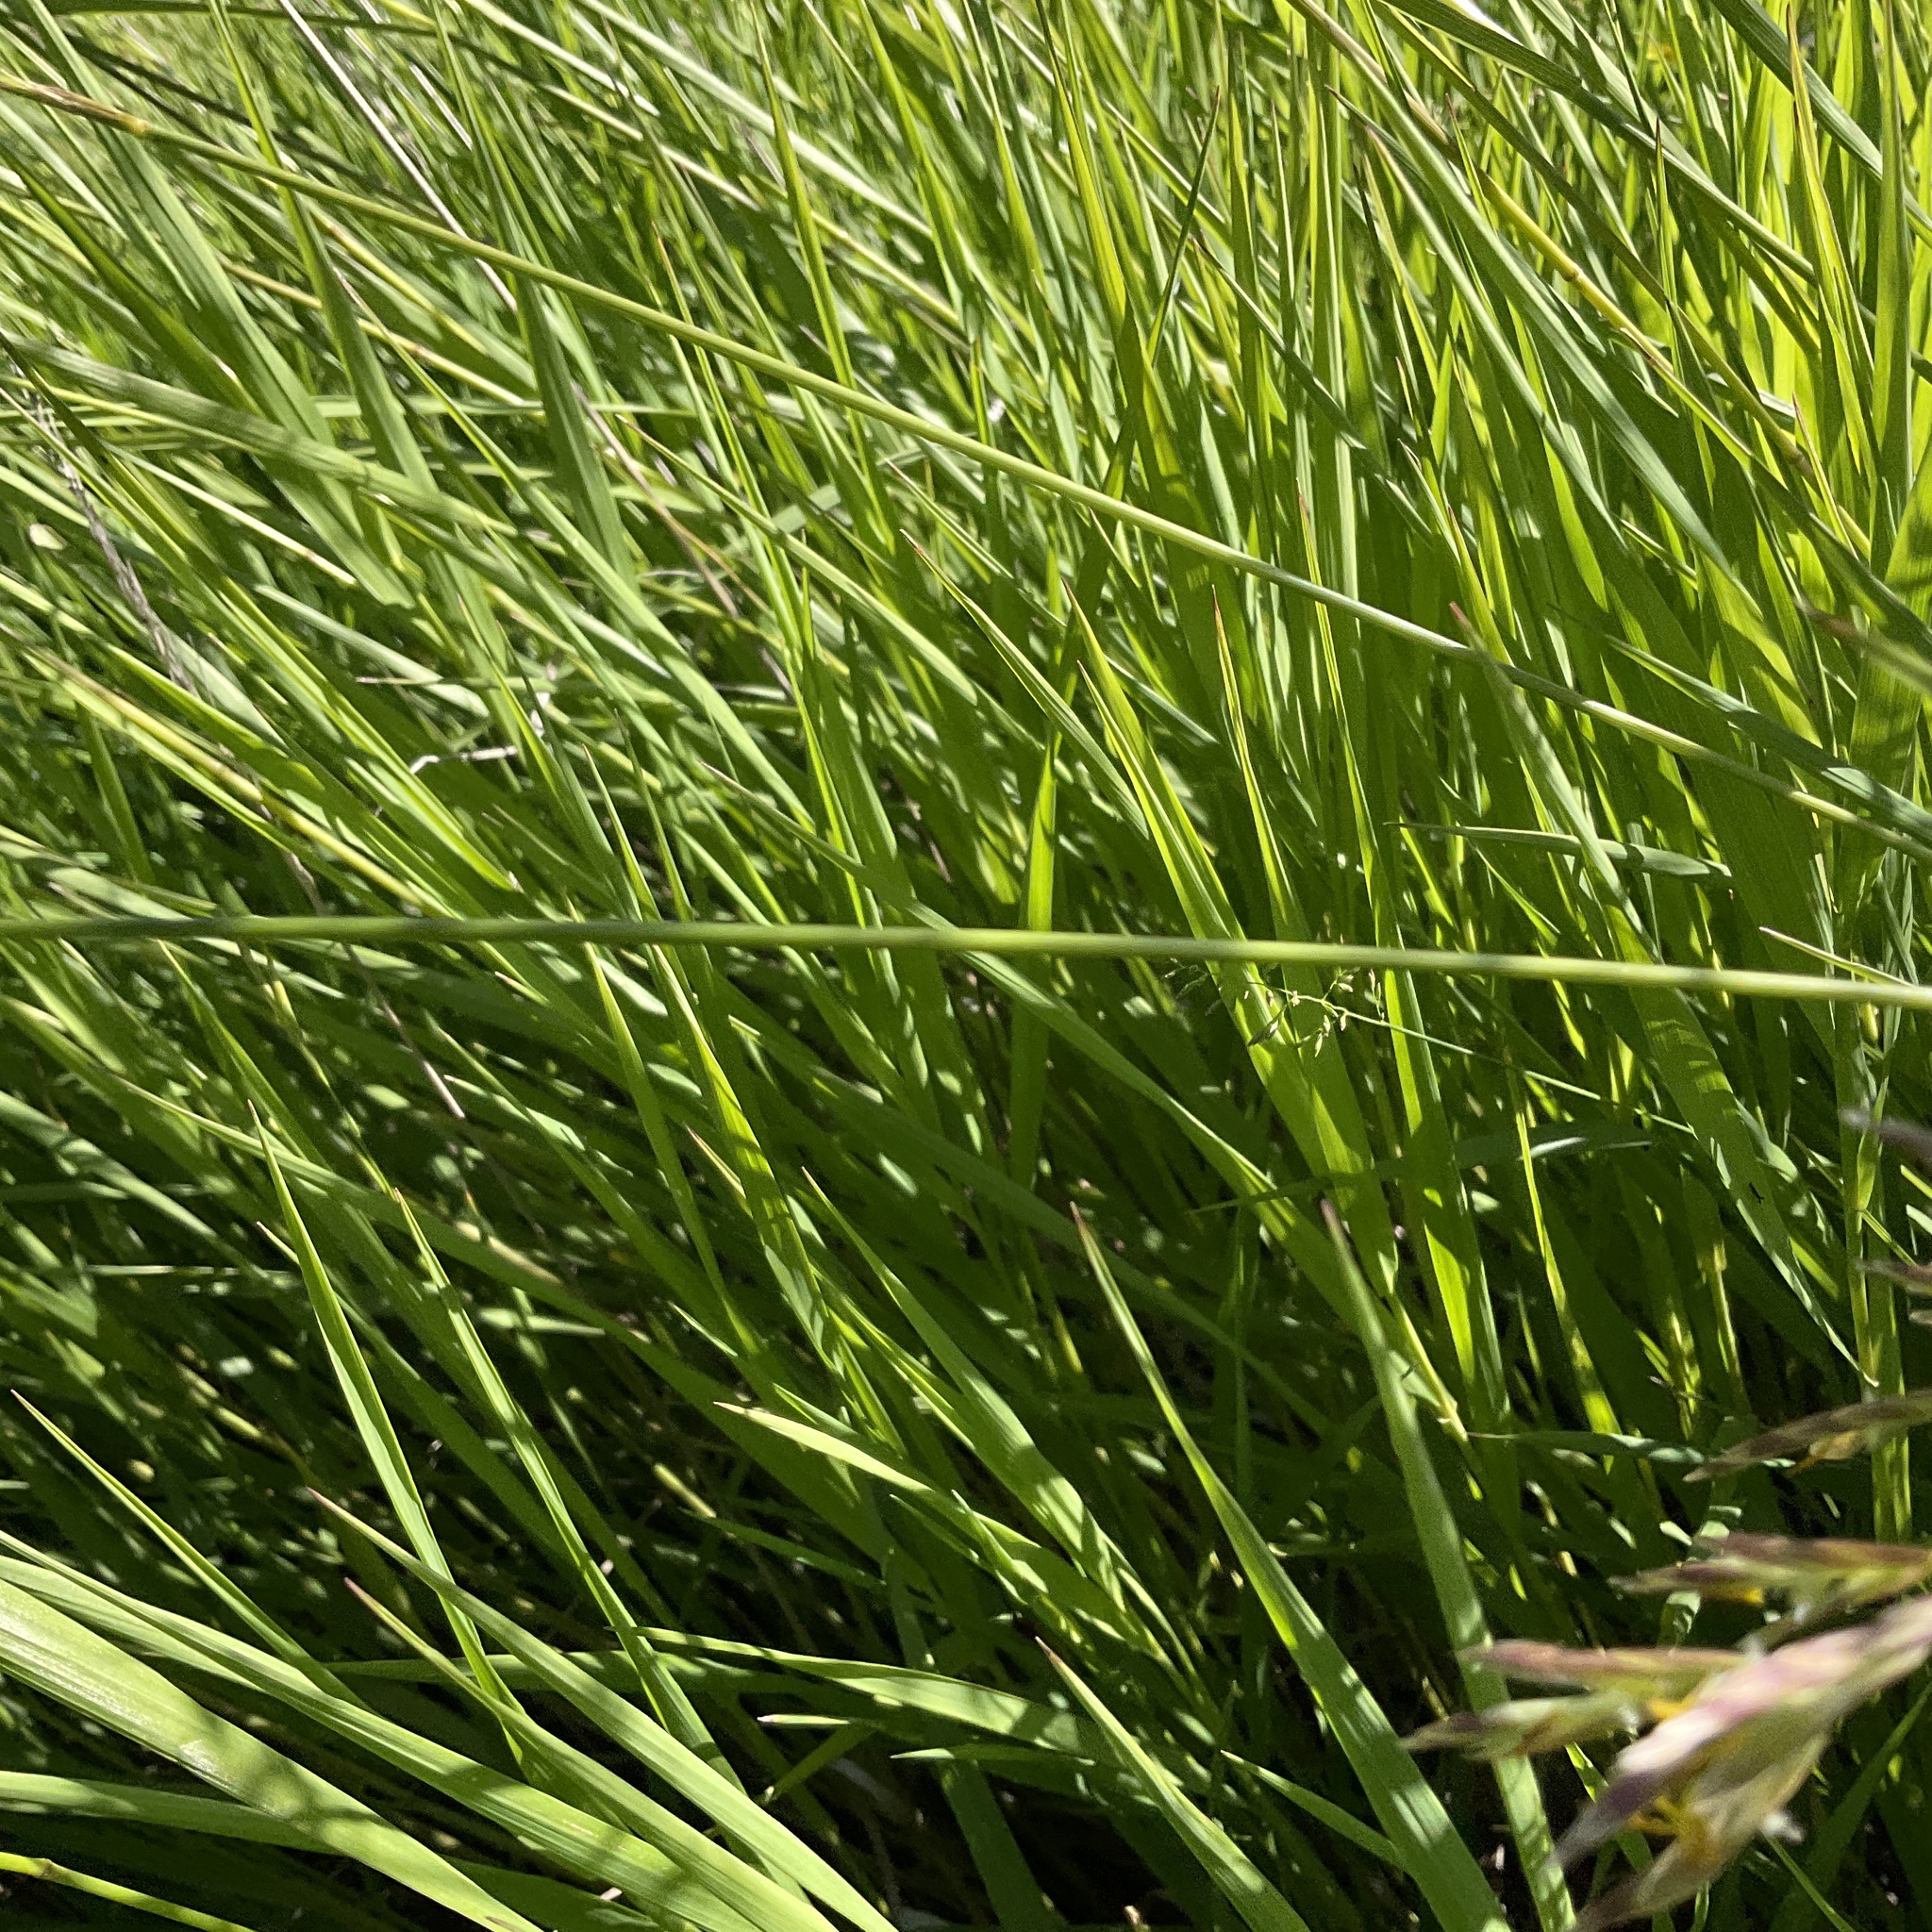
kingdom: Plantae
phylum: Tracheophyta
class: Liliopsida
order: Poales
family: Poaceae
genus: Bromus
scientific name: Bromus inermis
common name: Smooth brome
